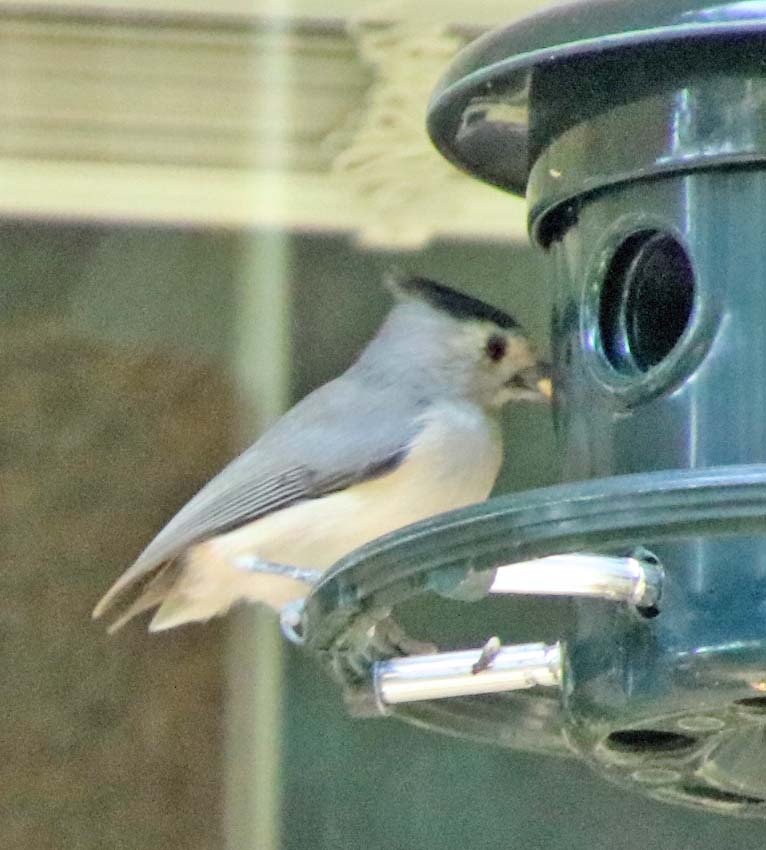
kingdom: Animalia
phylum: Chordata
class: Aves
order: Passeriformes
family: Paridae
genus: Baeolophus
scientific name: Baeolophus atricristatus
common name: Black-crested titmouse
